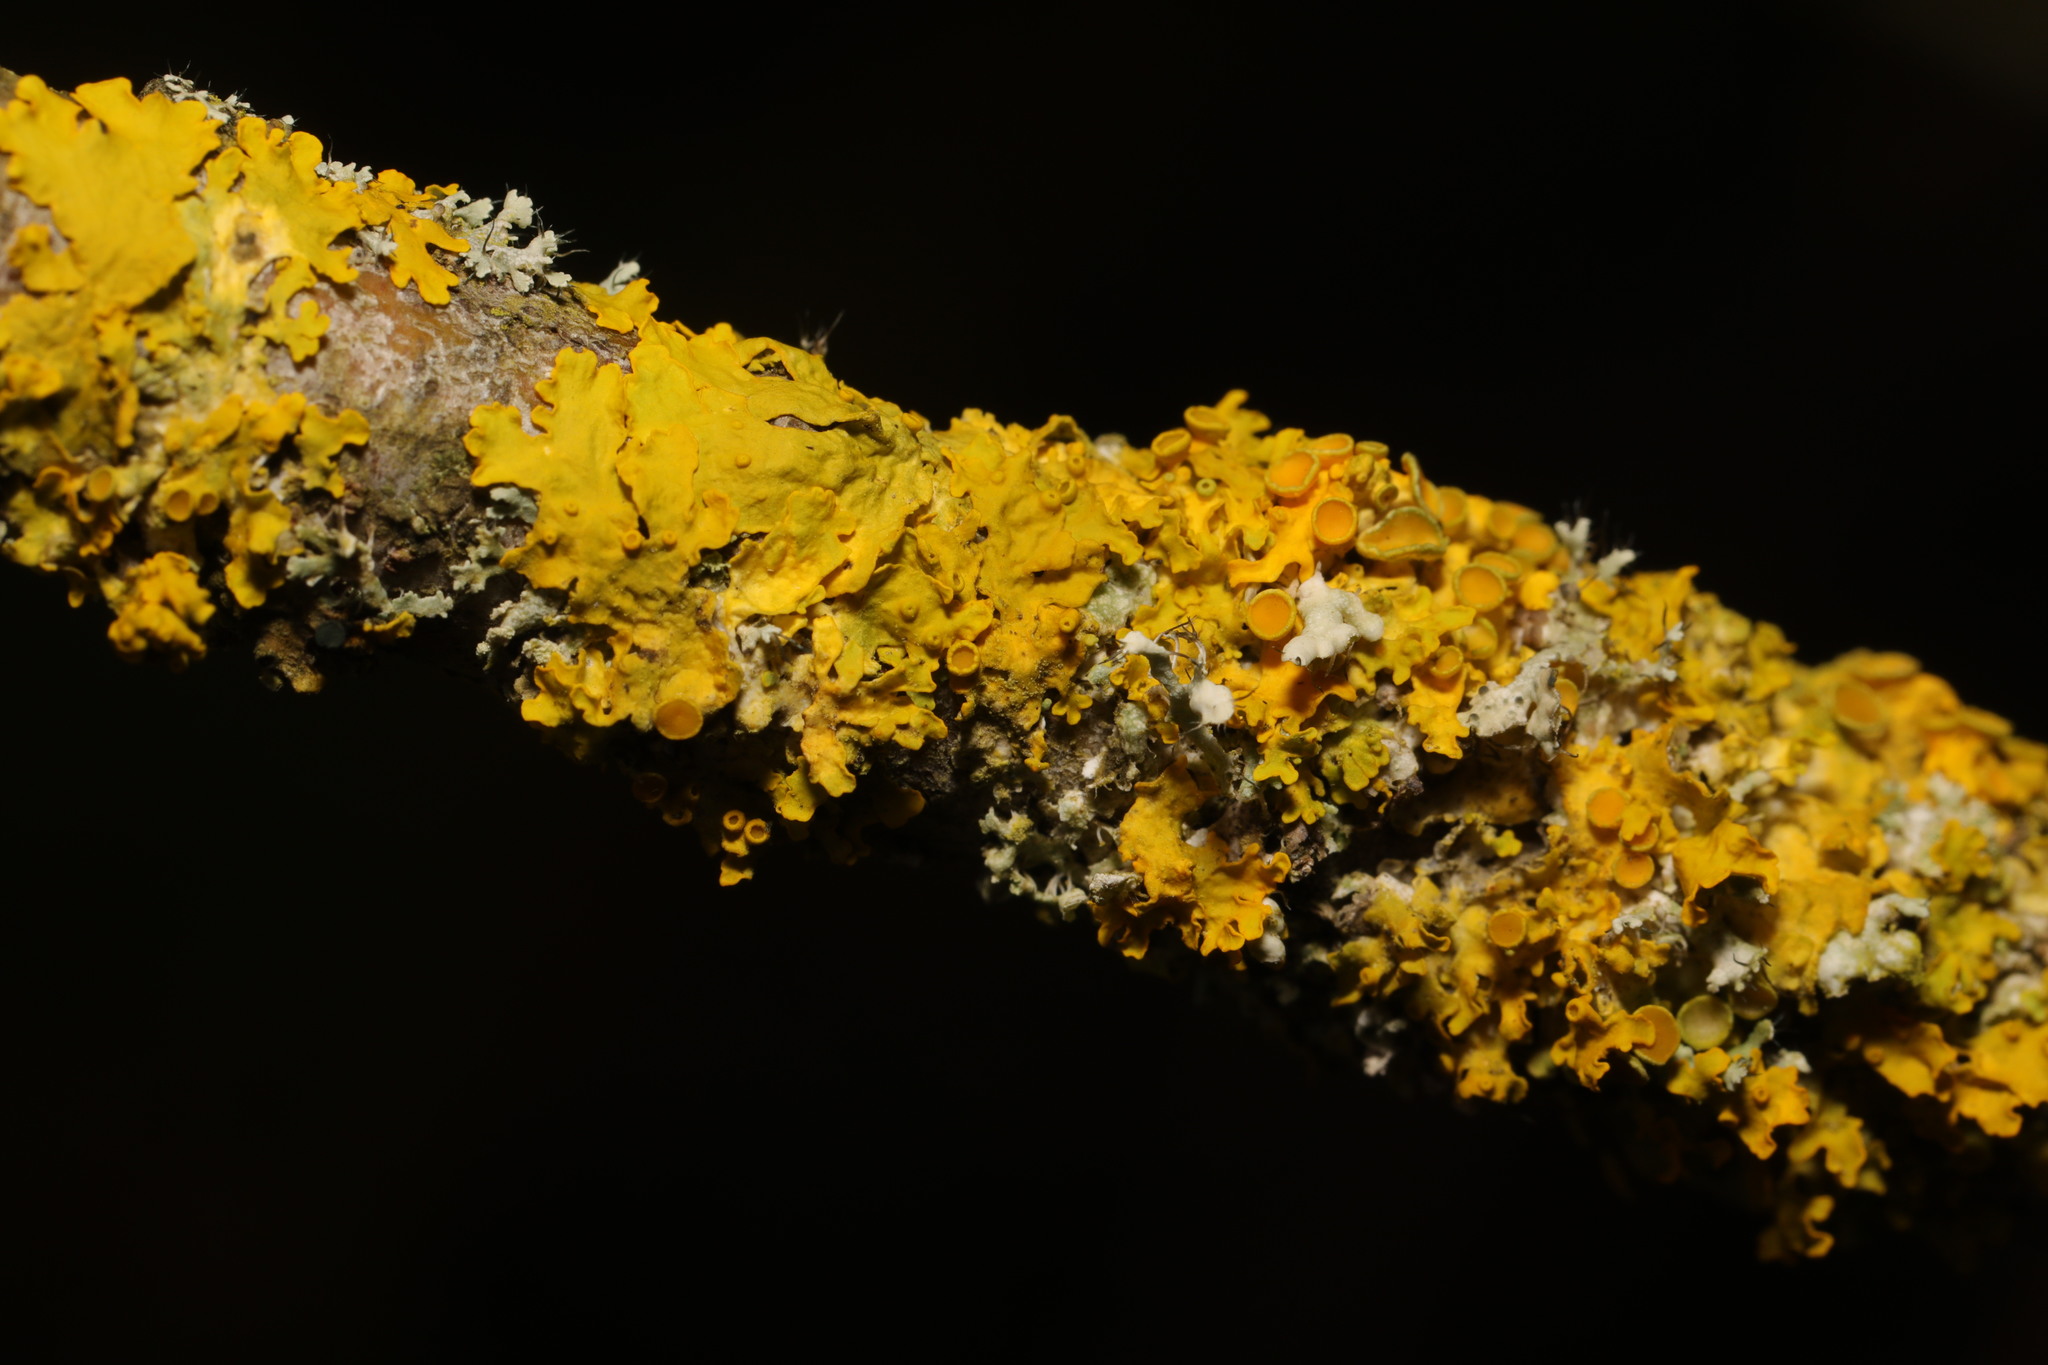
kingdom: Fungi
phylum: Ascomycota
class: Lecanoromycetes
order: Teloschistales
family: Teloschistaceae
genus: Xanthoria
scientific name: Xanthoria parietina
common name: Common orange lichen
